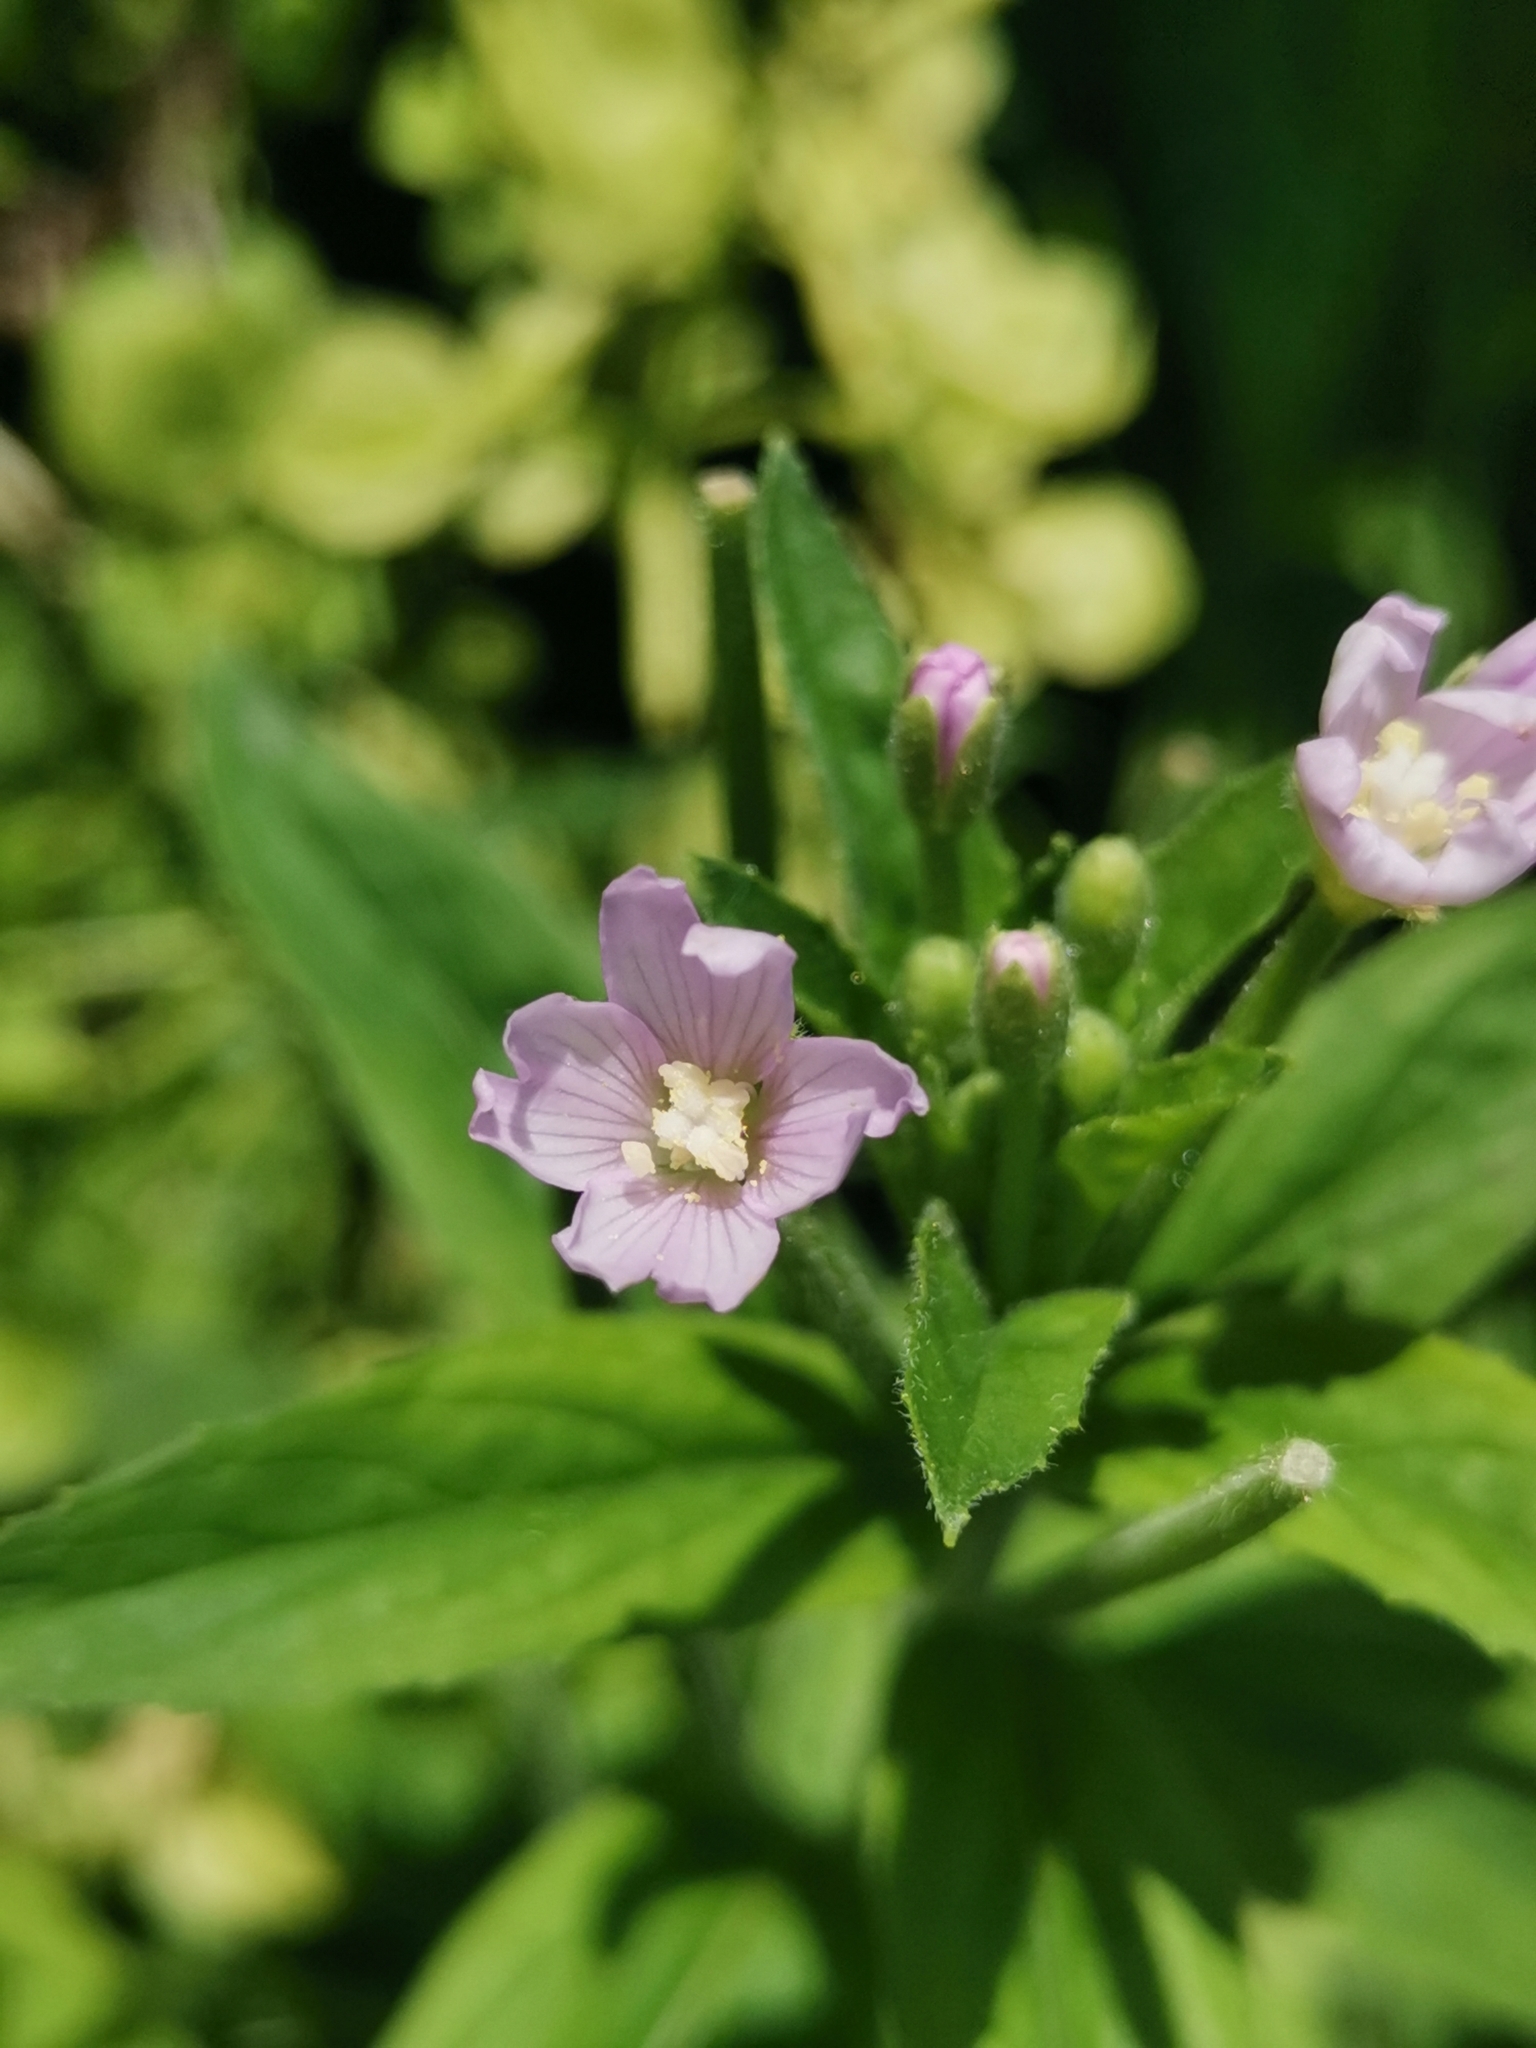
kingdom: Plantae
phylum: Tracheophyta
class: Magnoliopsida
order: Myrtales
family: Onagraceae
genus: Epilobium
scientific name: Epilobium parviflorum
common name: Hoary willowherb
